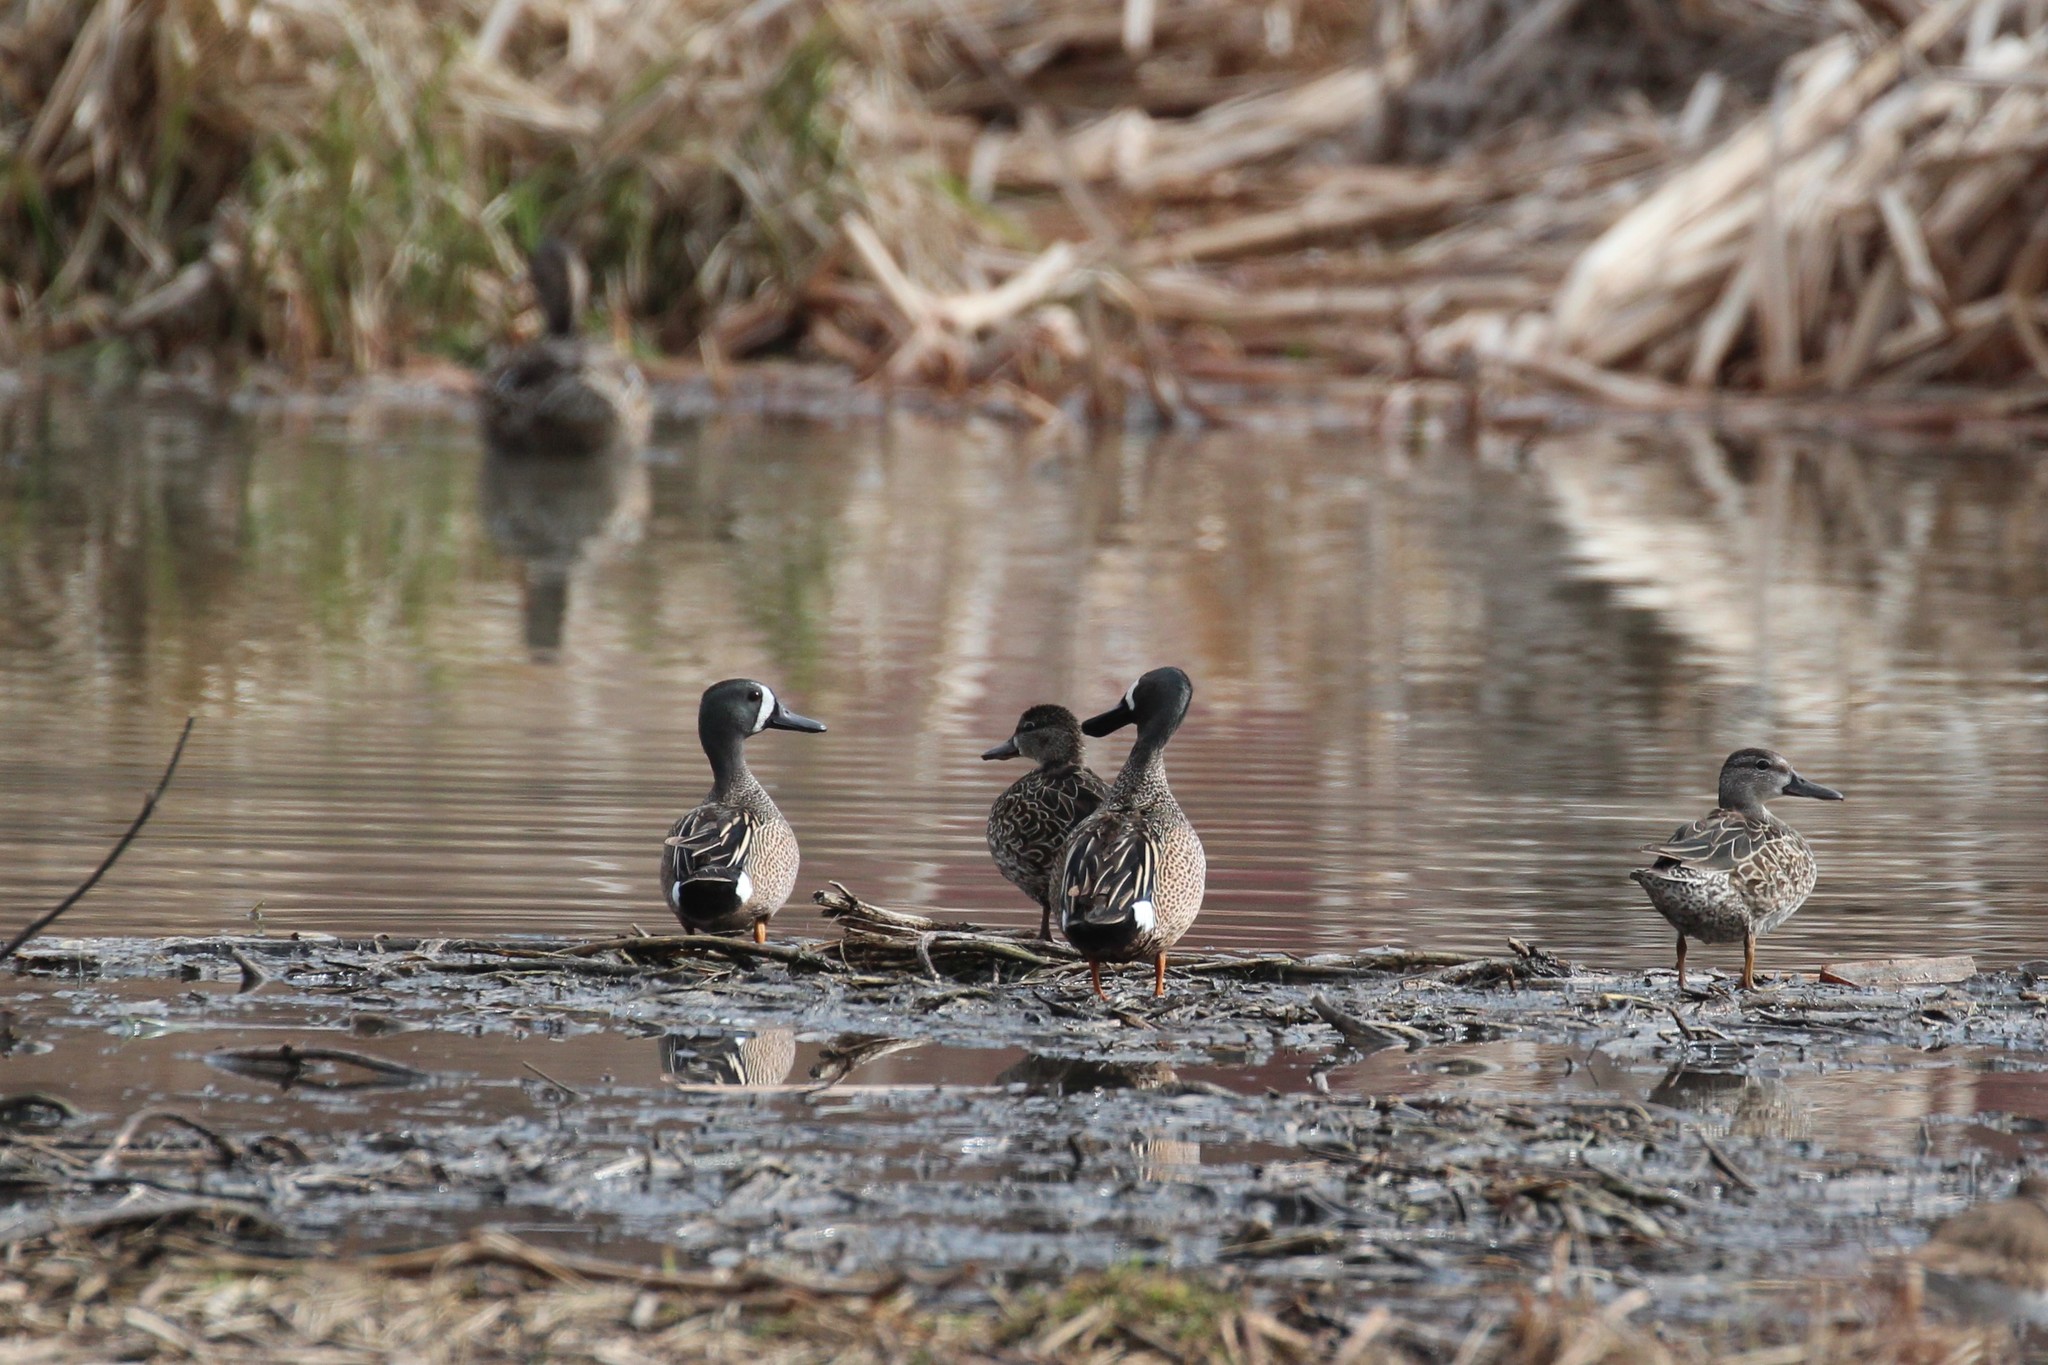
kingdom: Animalia
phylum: Chordata
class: Aves
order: Anseriformes
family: Anatidae
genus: Spatula
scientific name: Spatula discors
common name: Blue-winged teal
